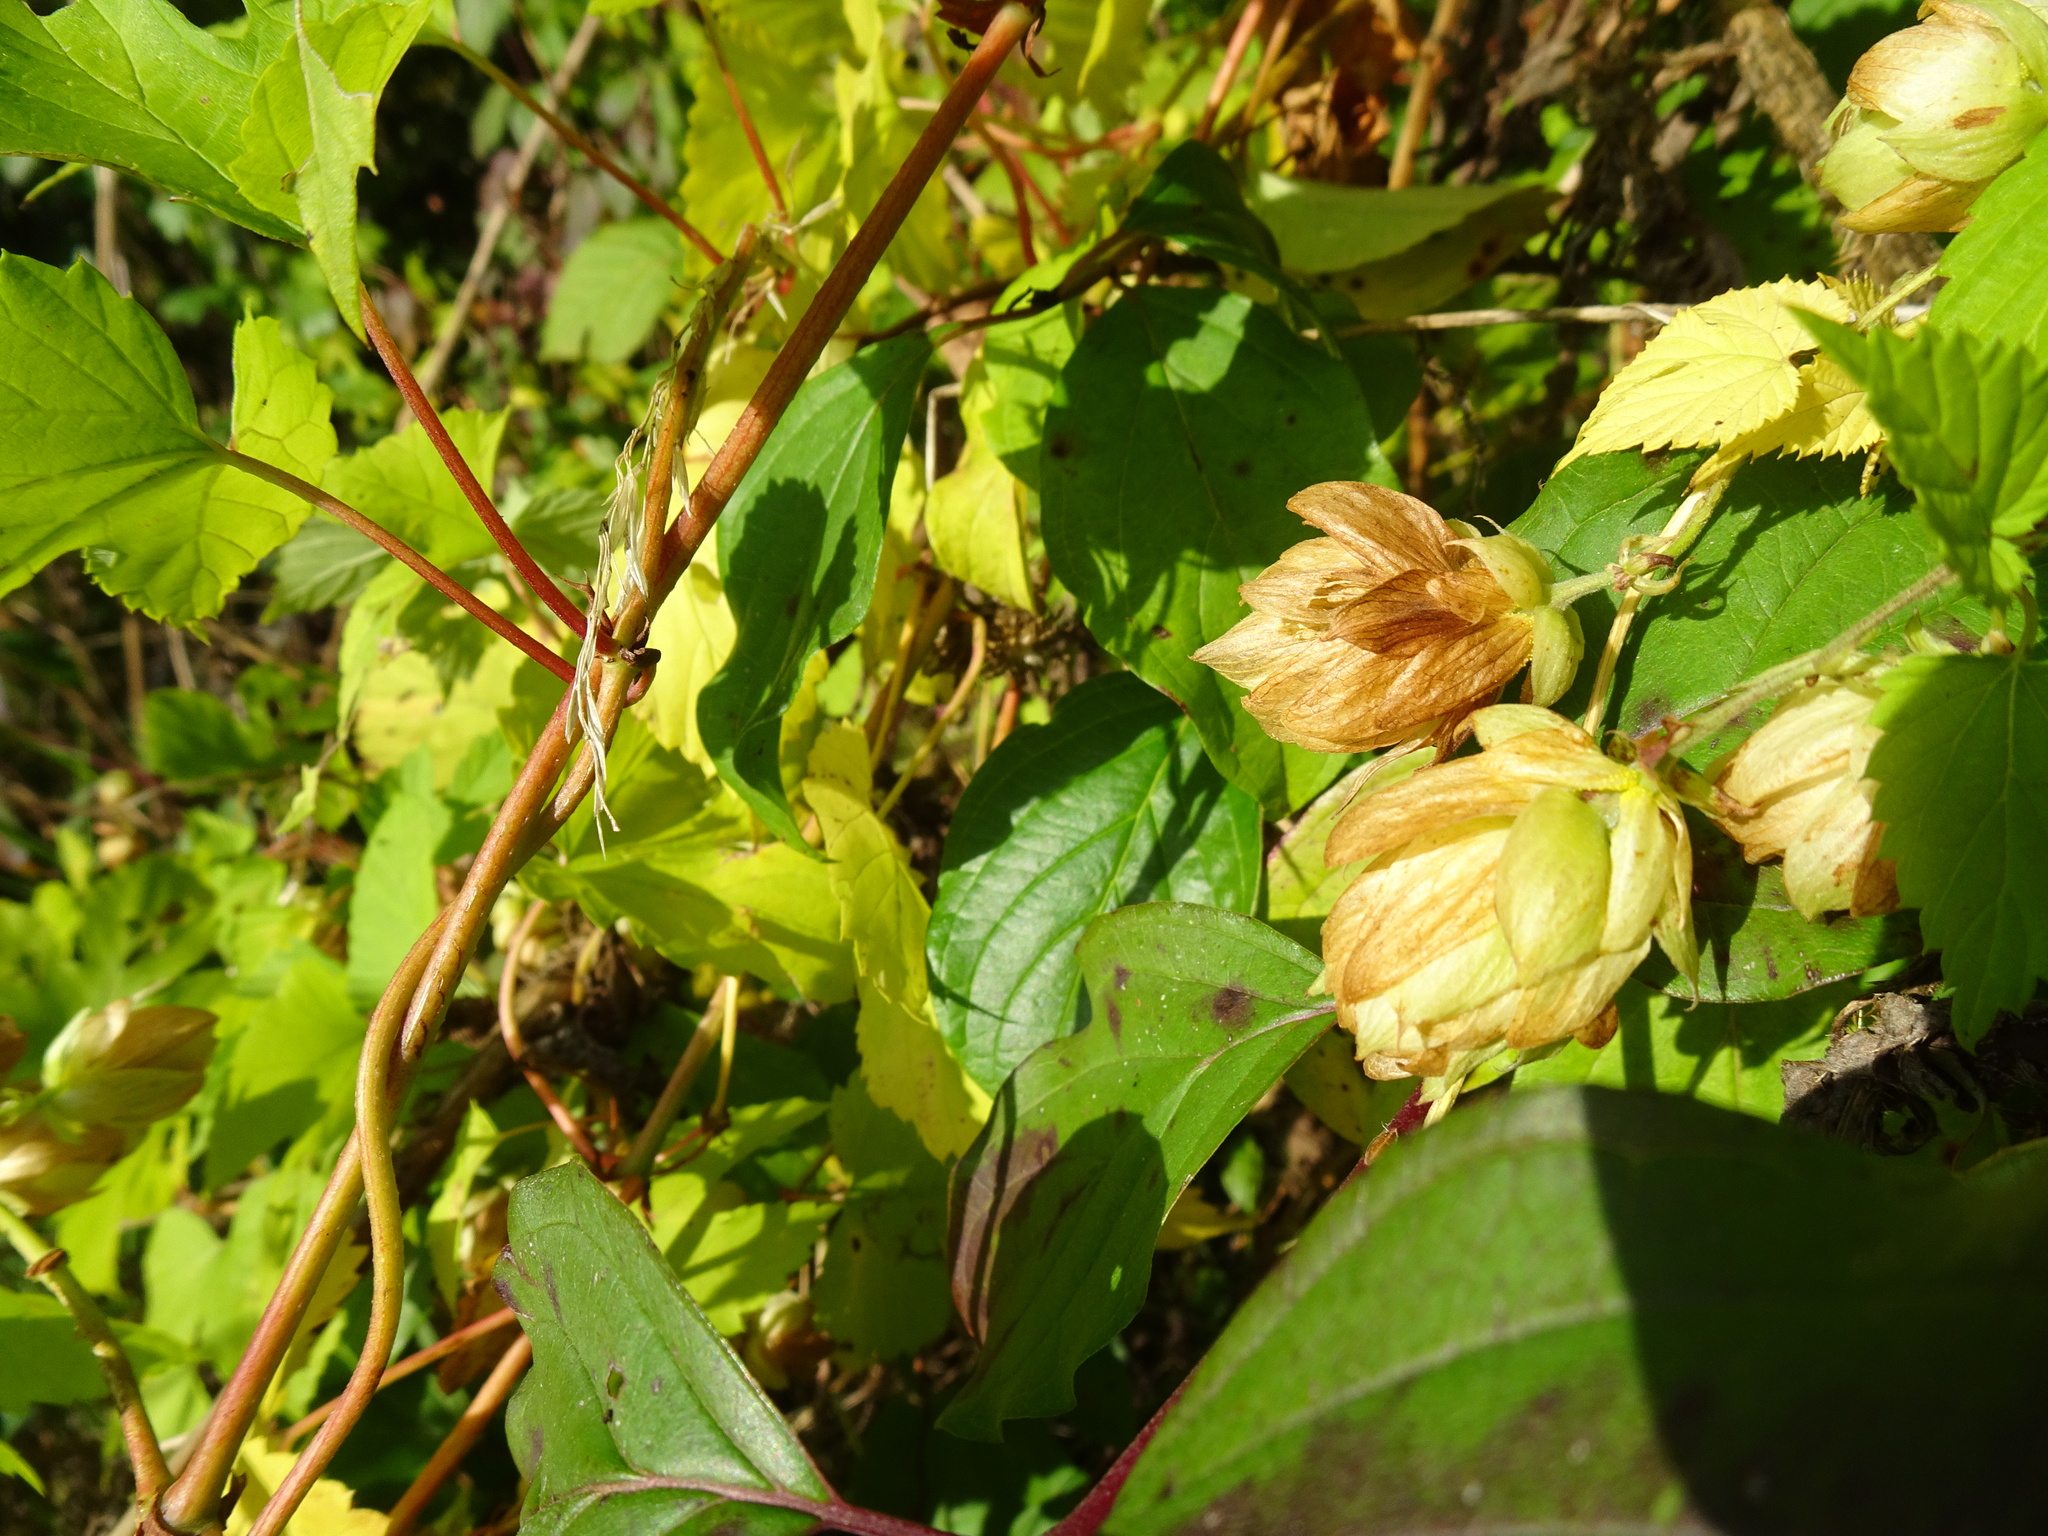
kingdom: Plantae
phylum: Tracheophyta
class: Magnoliopsida
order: Rosales
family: Cannabaceae
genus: Humulus
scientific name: Humulus lupulus
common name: Hop
